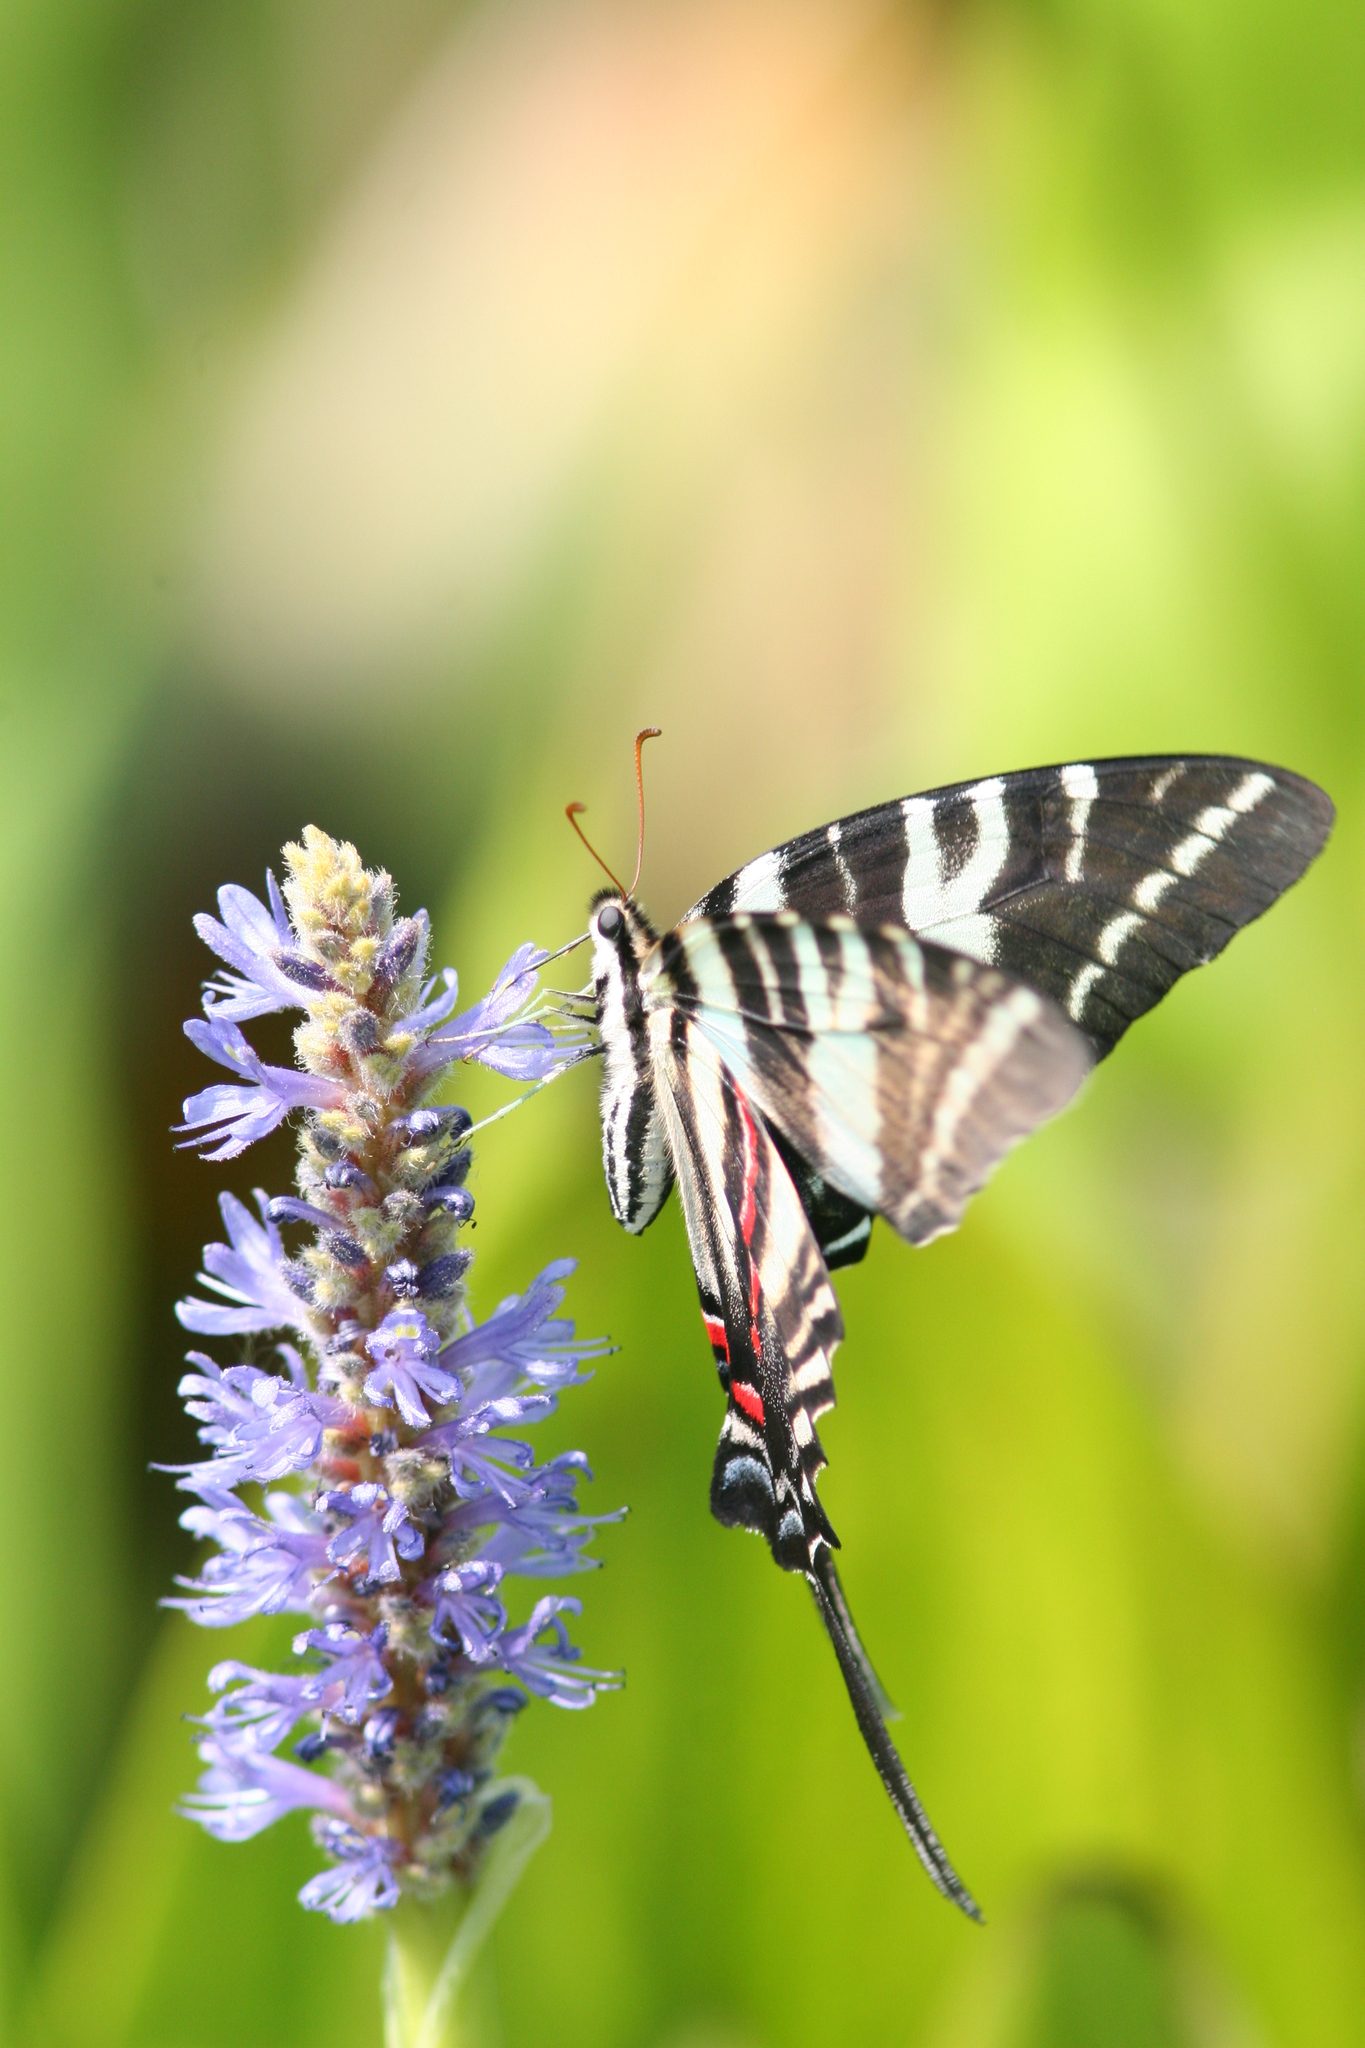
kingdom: Animalia
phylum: Arthropoda
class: Insecta
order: Lepidoptera
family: Papilionidae
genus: Protographium
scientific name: Protographium marcellus
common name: Zebra swallowtail
